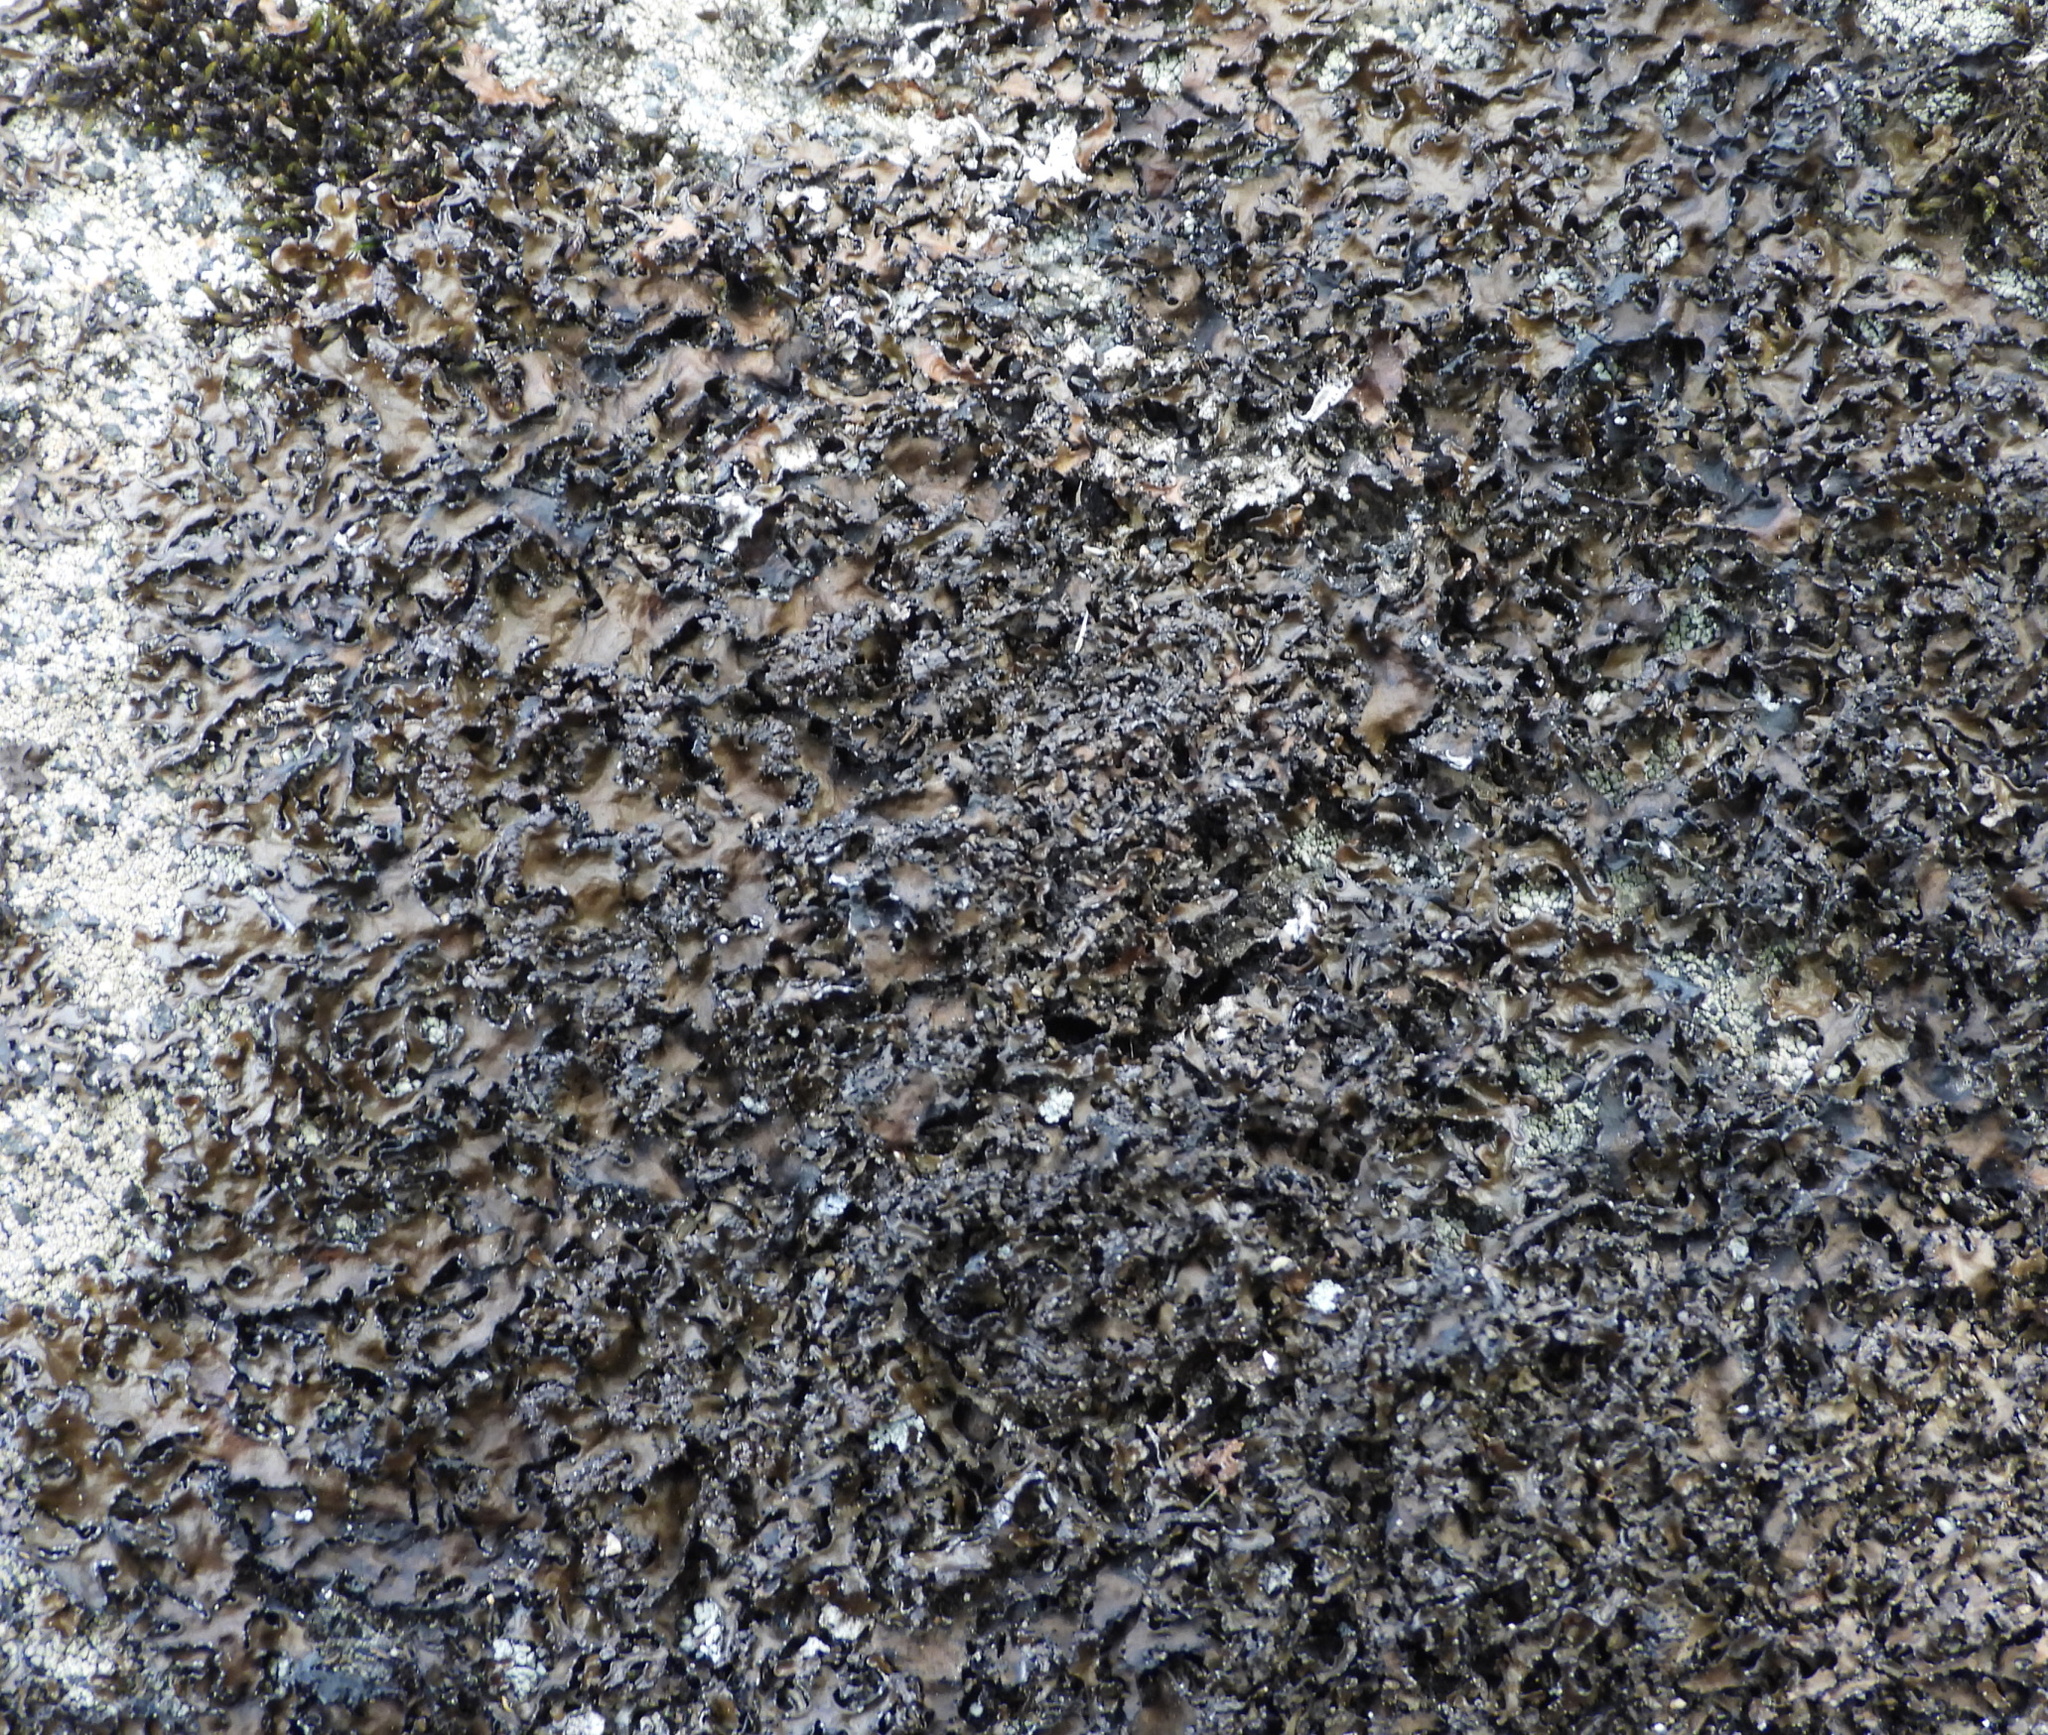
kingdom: Fungi
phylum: Ascomycota
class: Lecanoromycetes
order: Lecanorales
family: Parmeliaceae
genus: Melanelia
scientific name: Melanelia hepatizon
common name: Rimmed camouflage lichen
